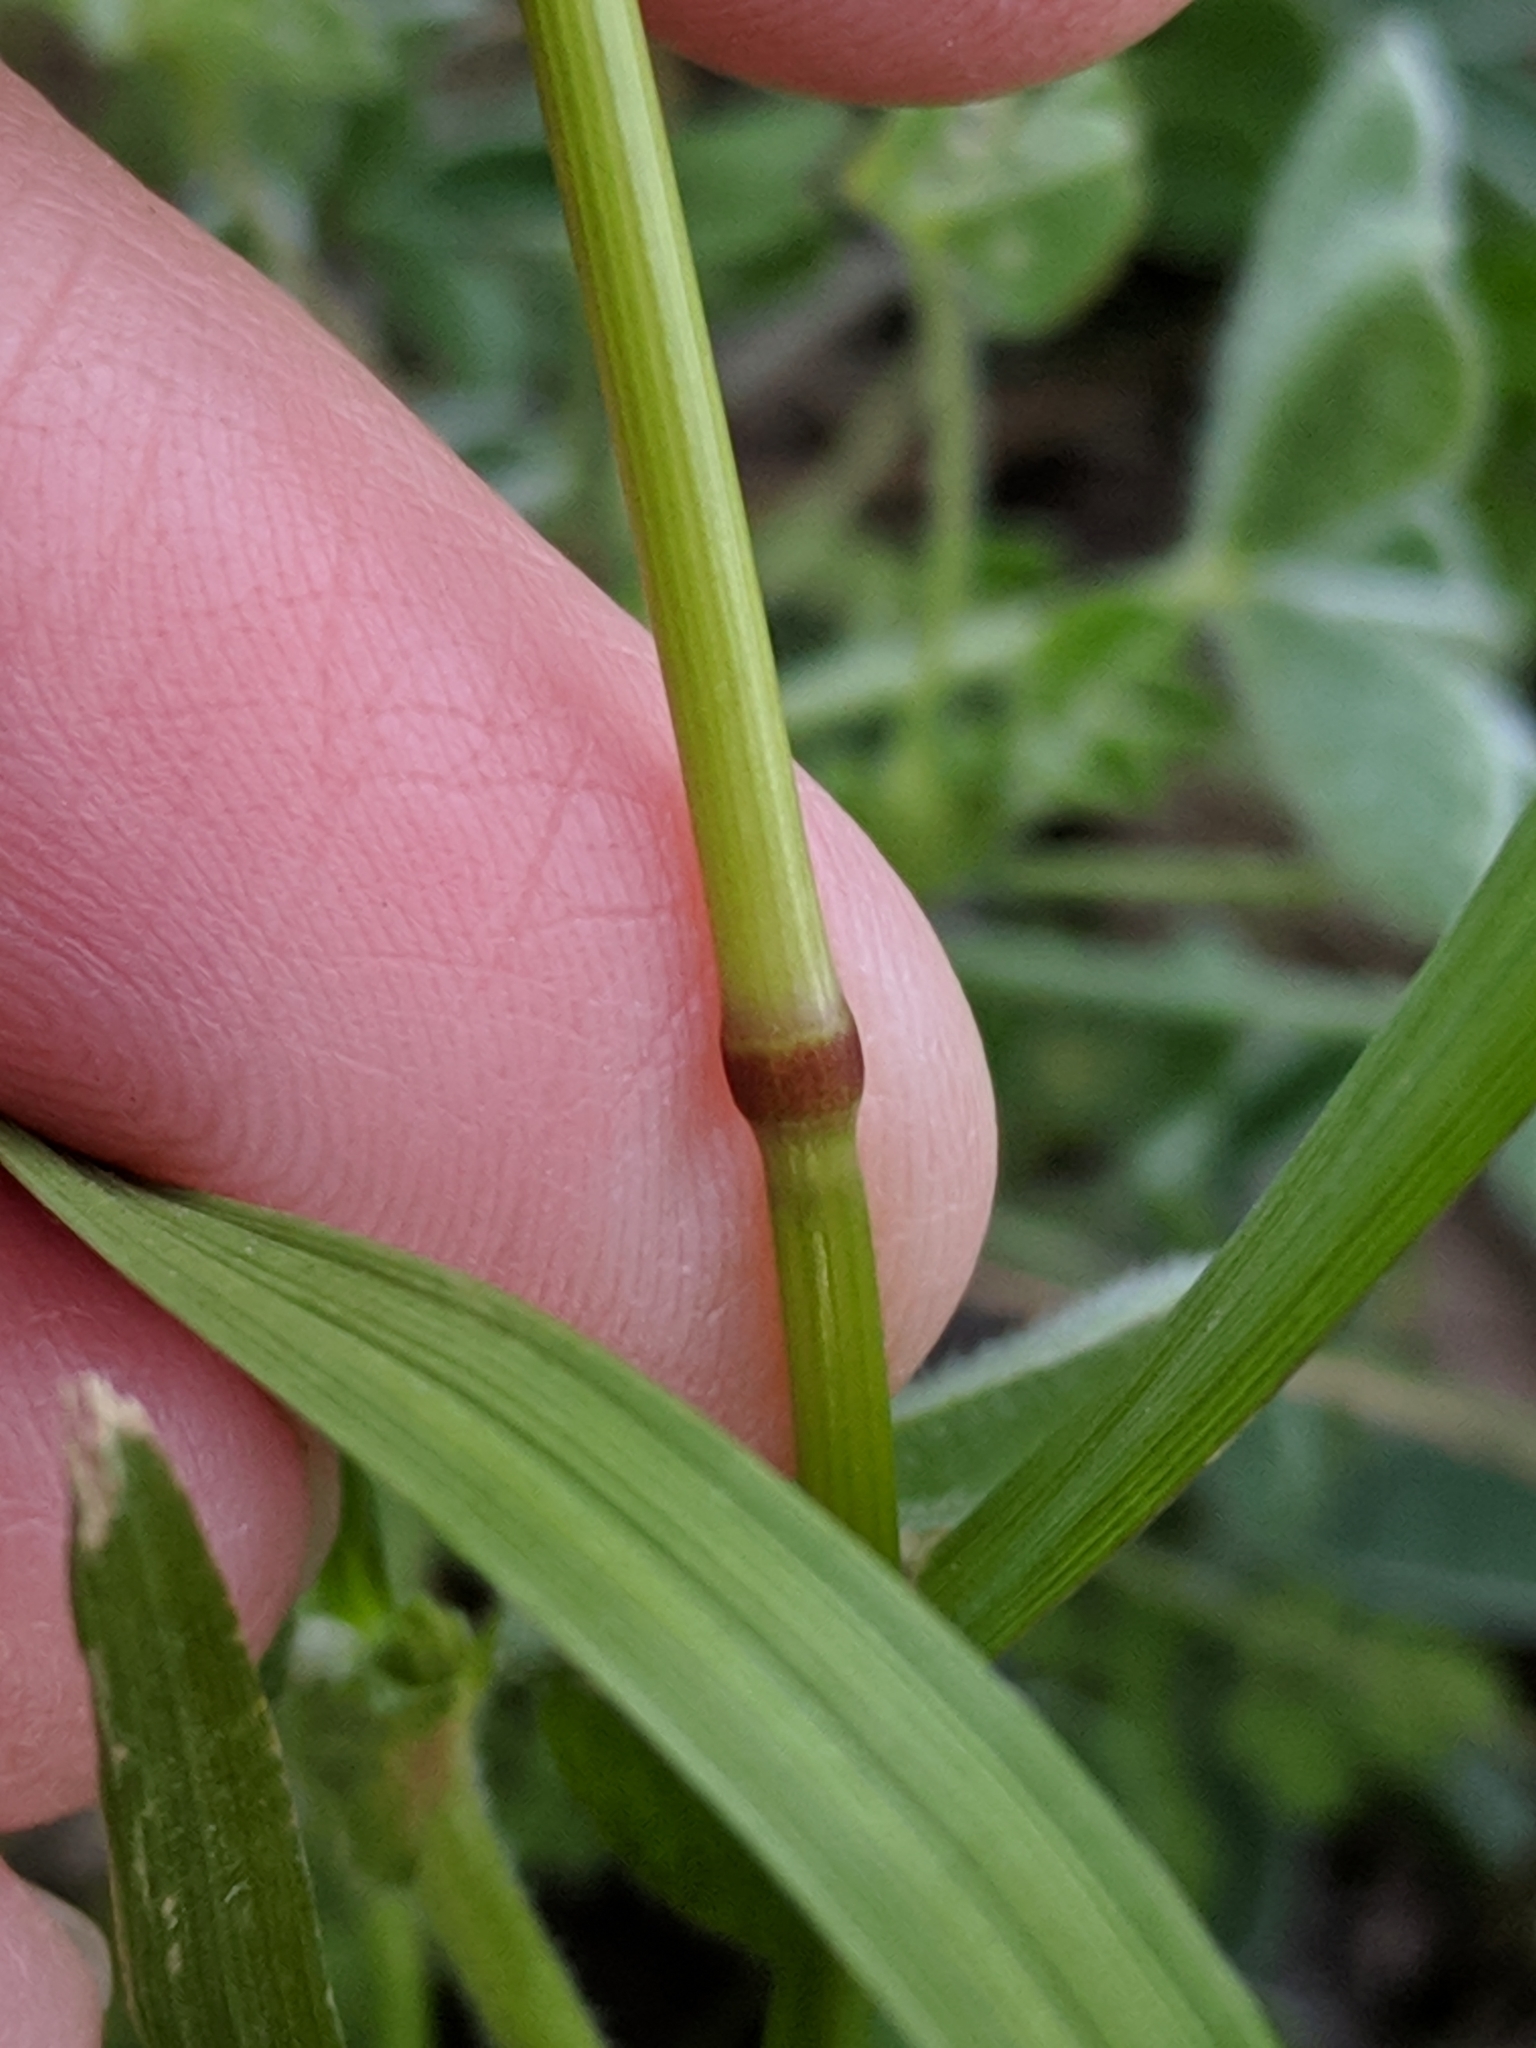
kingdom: Plantae
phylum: Tracheophyta
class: Liliopsida
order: Poales
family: Poaceae
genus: Lolium
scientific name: Lolium multiflorum
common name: Annual ryegrass
